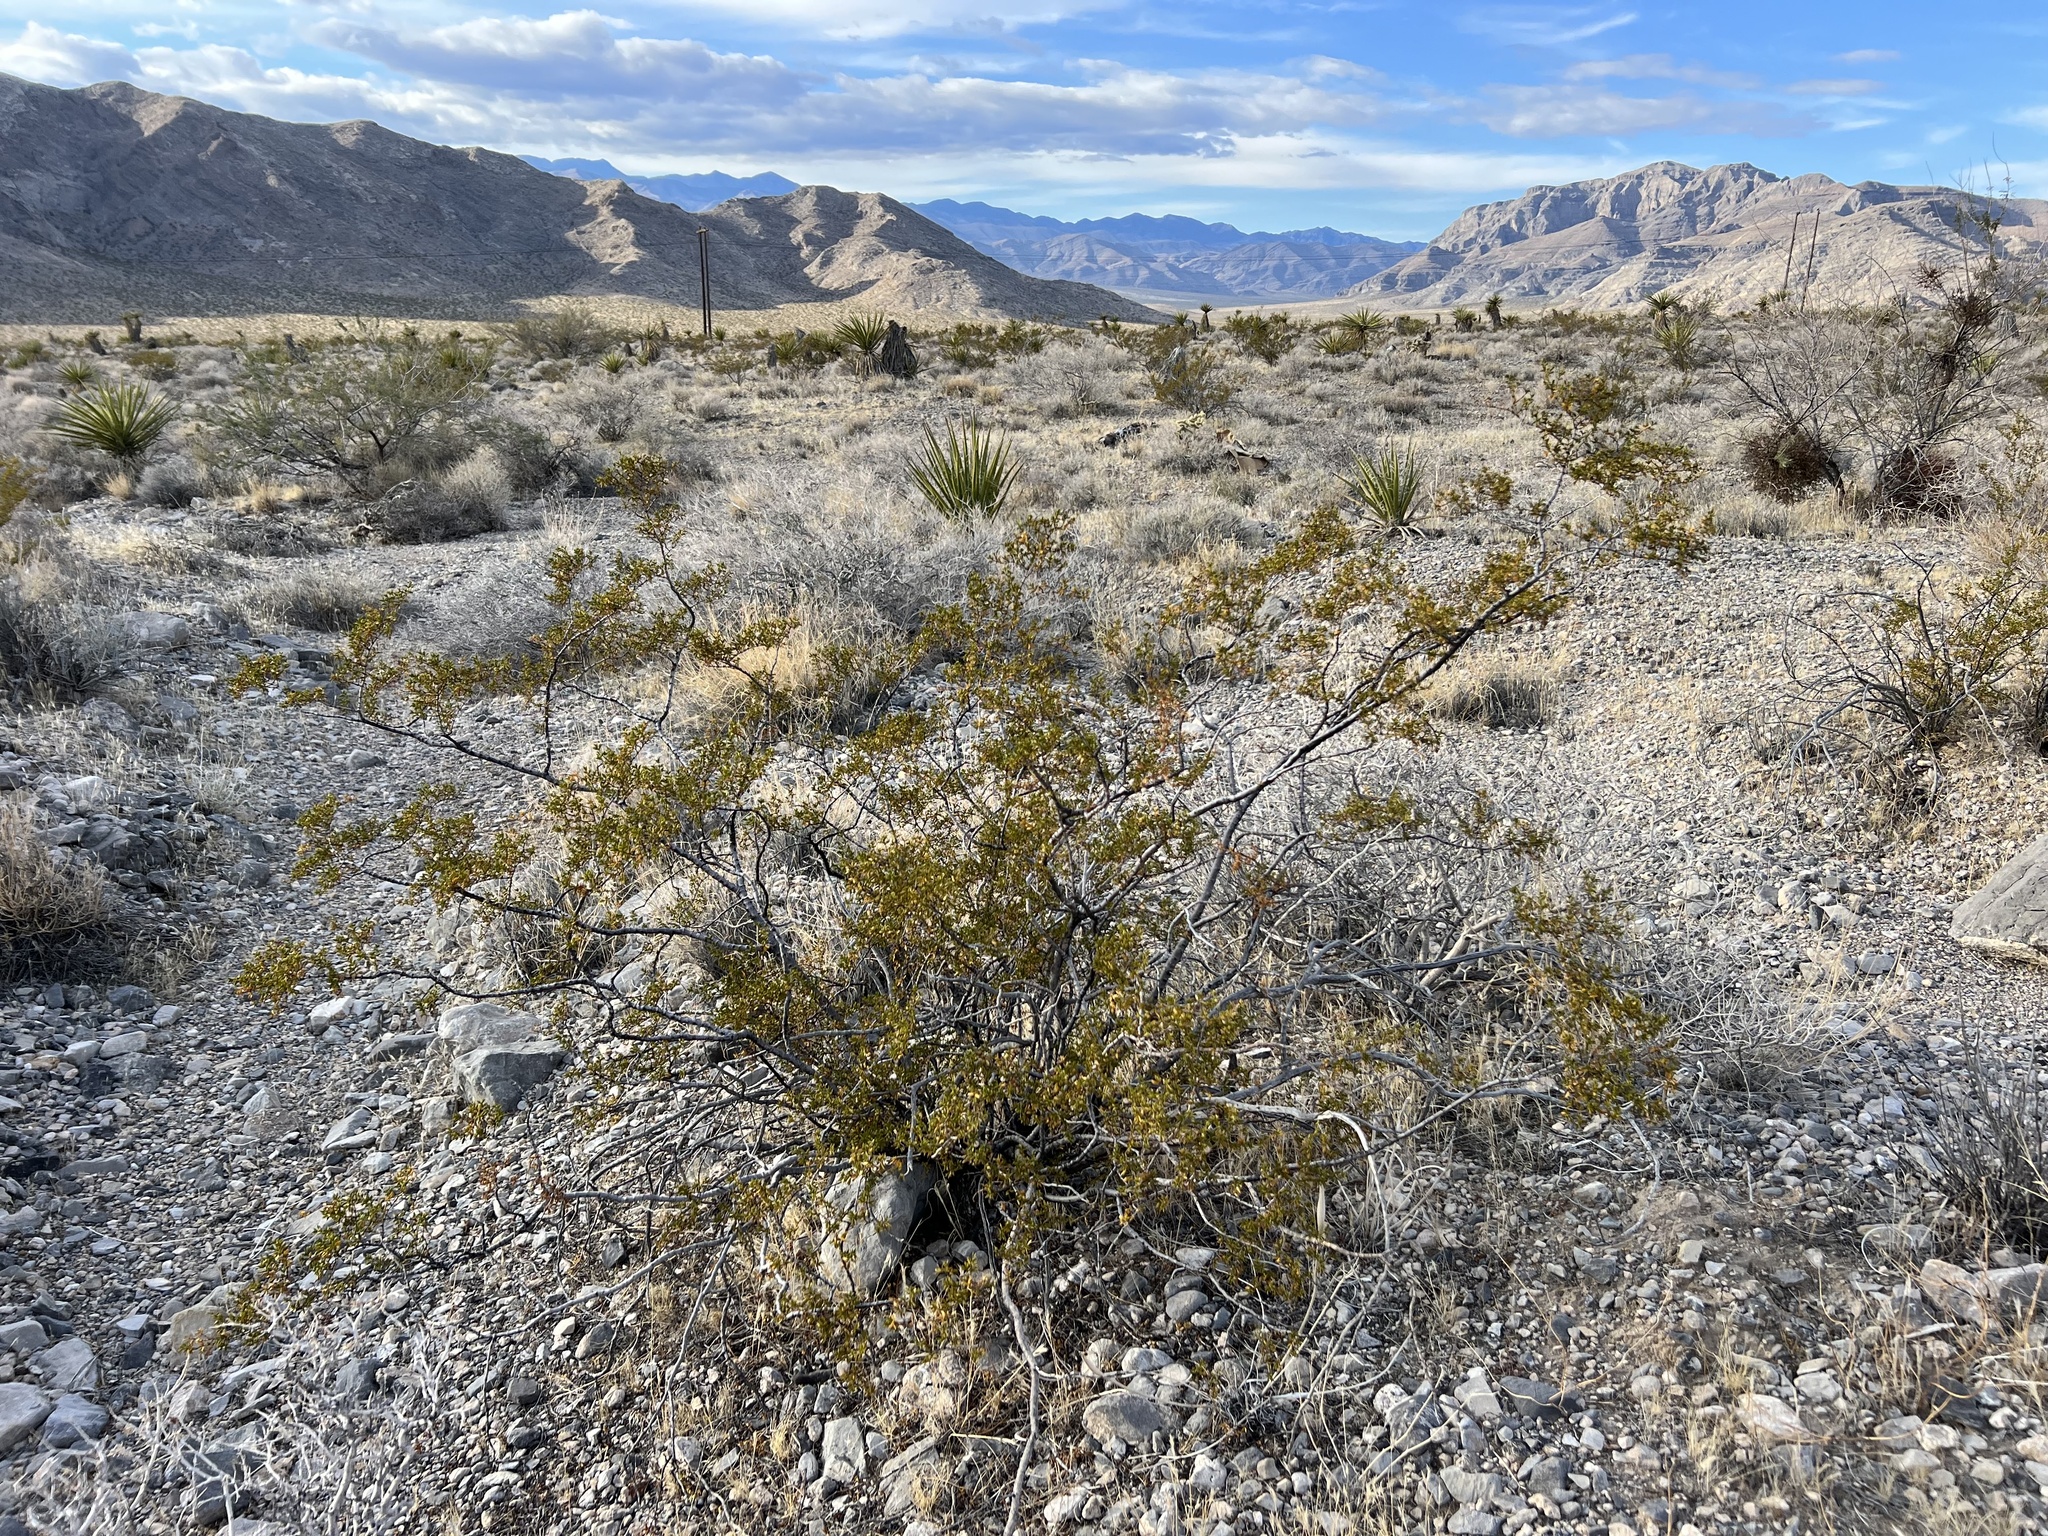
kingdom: Plantae
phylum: Tracheophyta
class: Magnoliopsida
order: Zygophyllales
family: Zygophyllaceae
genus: Larrea
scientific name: Larrea tridentata
